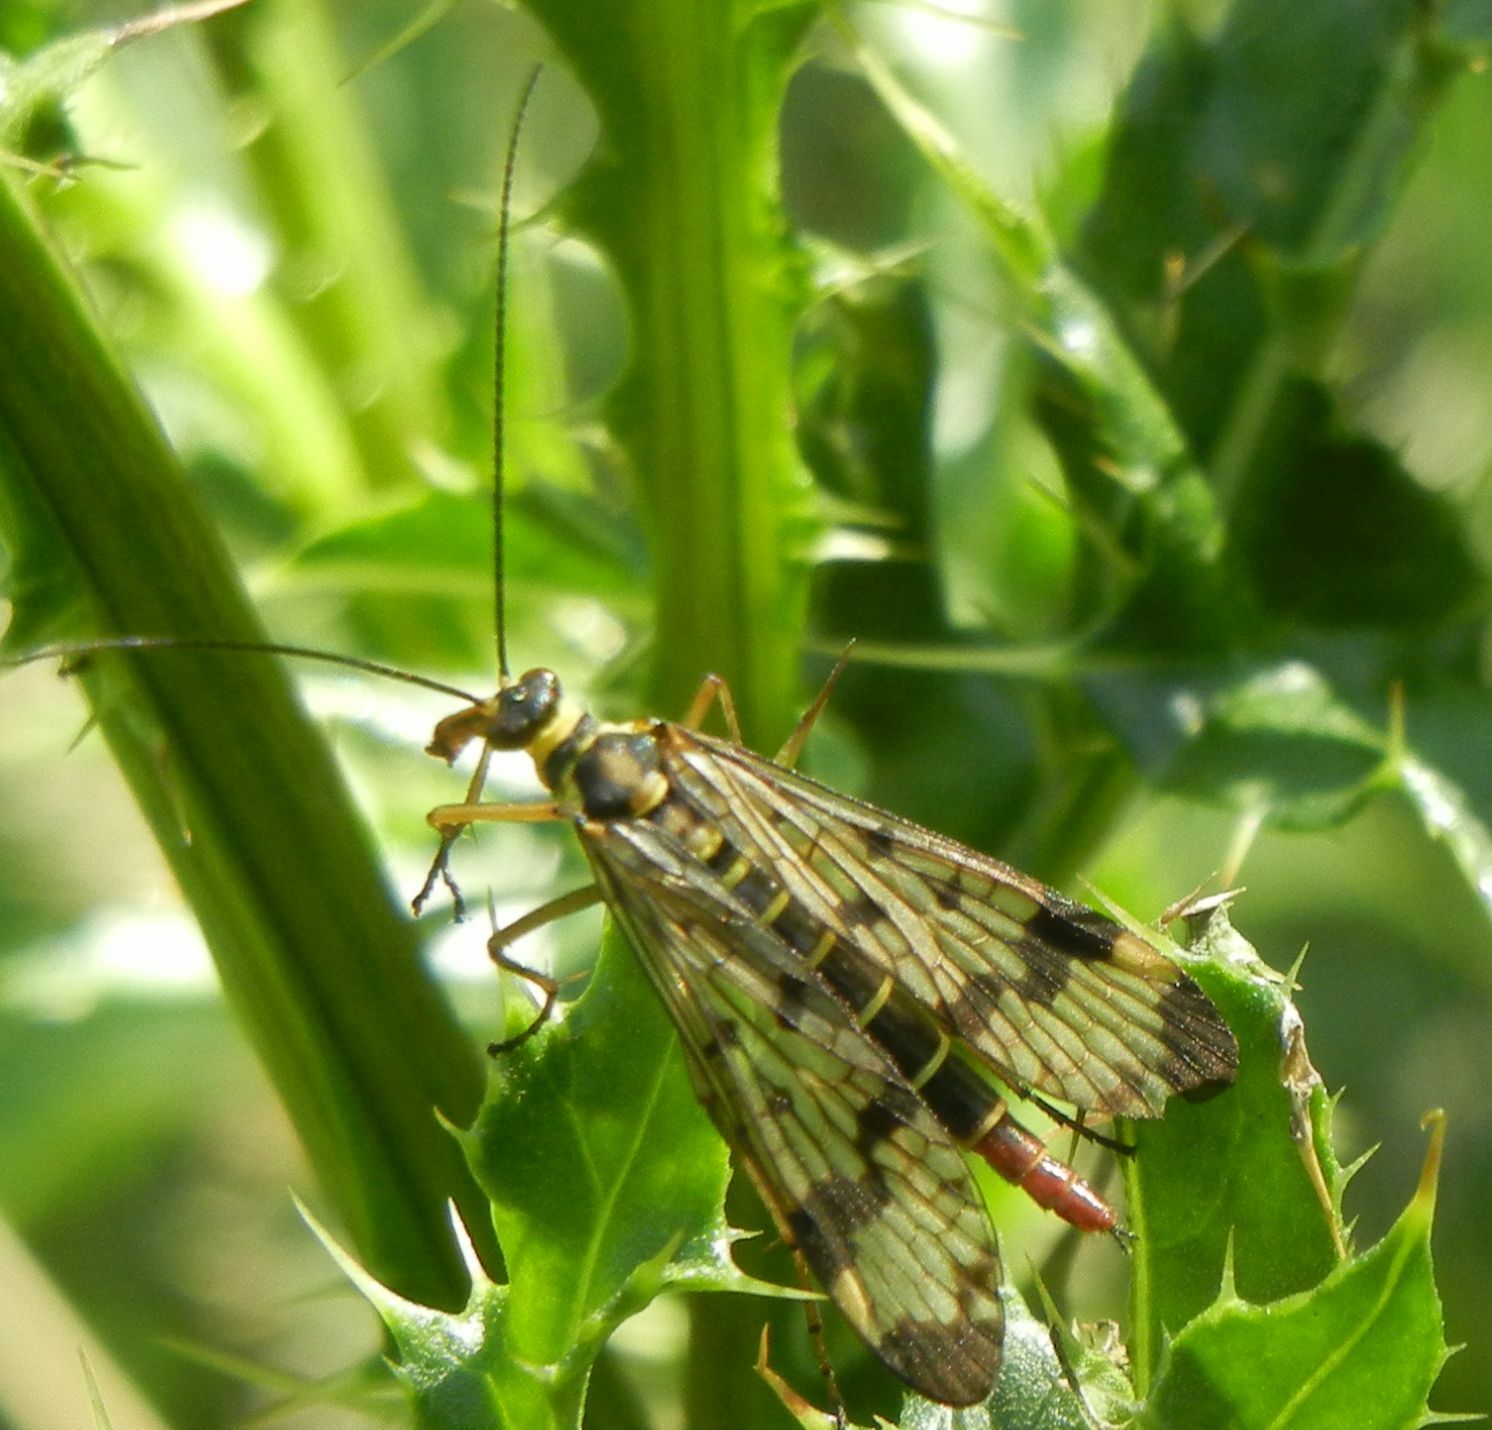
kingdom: Animalia
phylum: Arthropoda
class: Insecta
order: Mecoptera
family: Panorpidae
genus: Panorpa
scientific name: Panorpa communis
